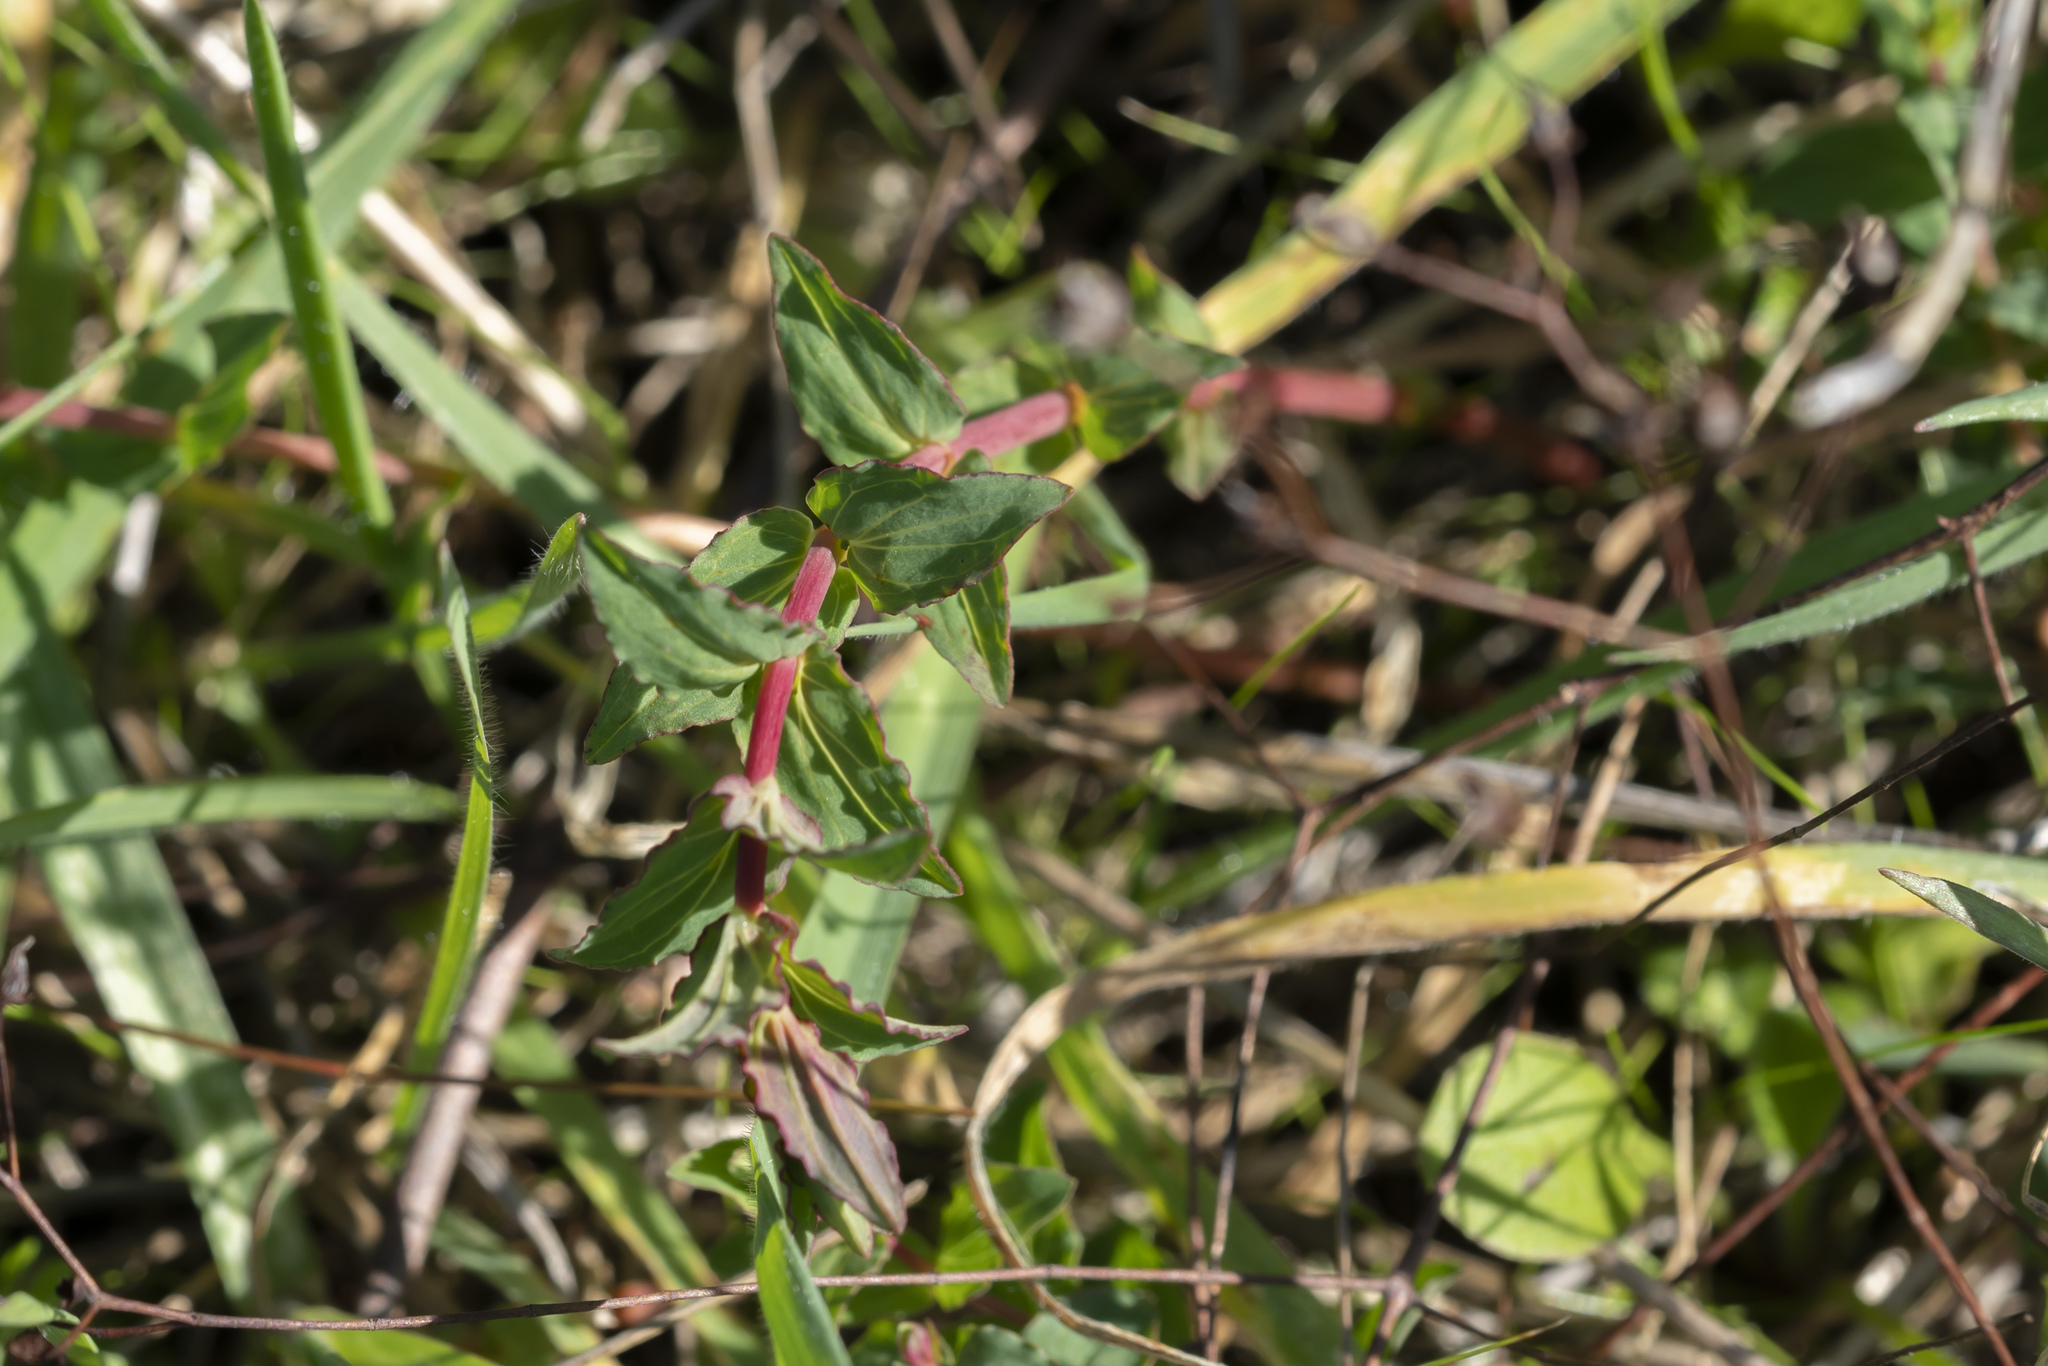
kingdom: Plantae
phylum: Tracheophyta
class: Magnoliopsida
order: Malpighiales
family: Hypericaceae
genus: Hypericum
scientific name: Hypericum triquetrifolium
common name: Tangled hypericum
